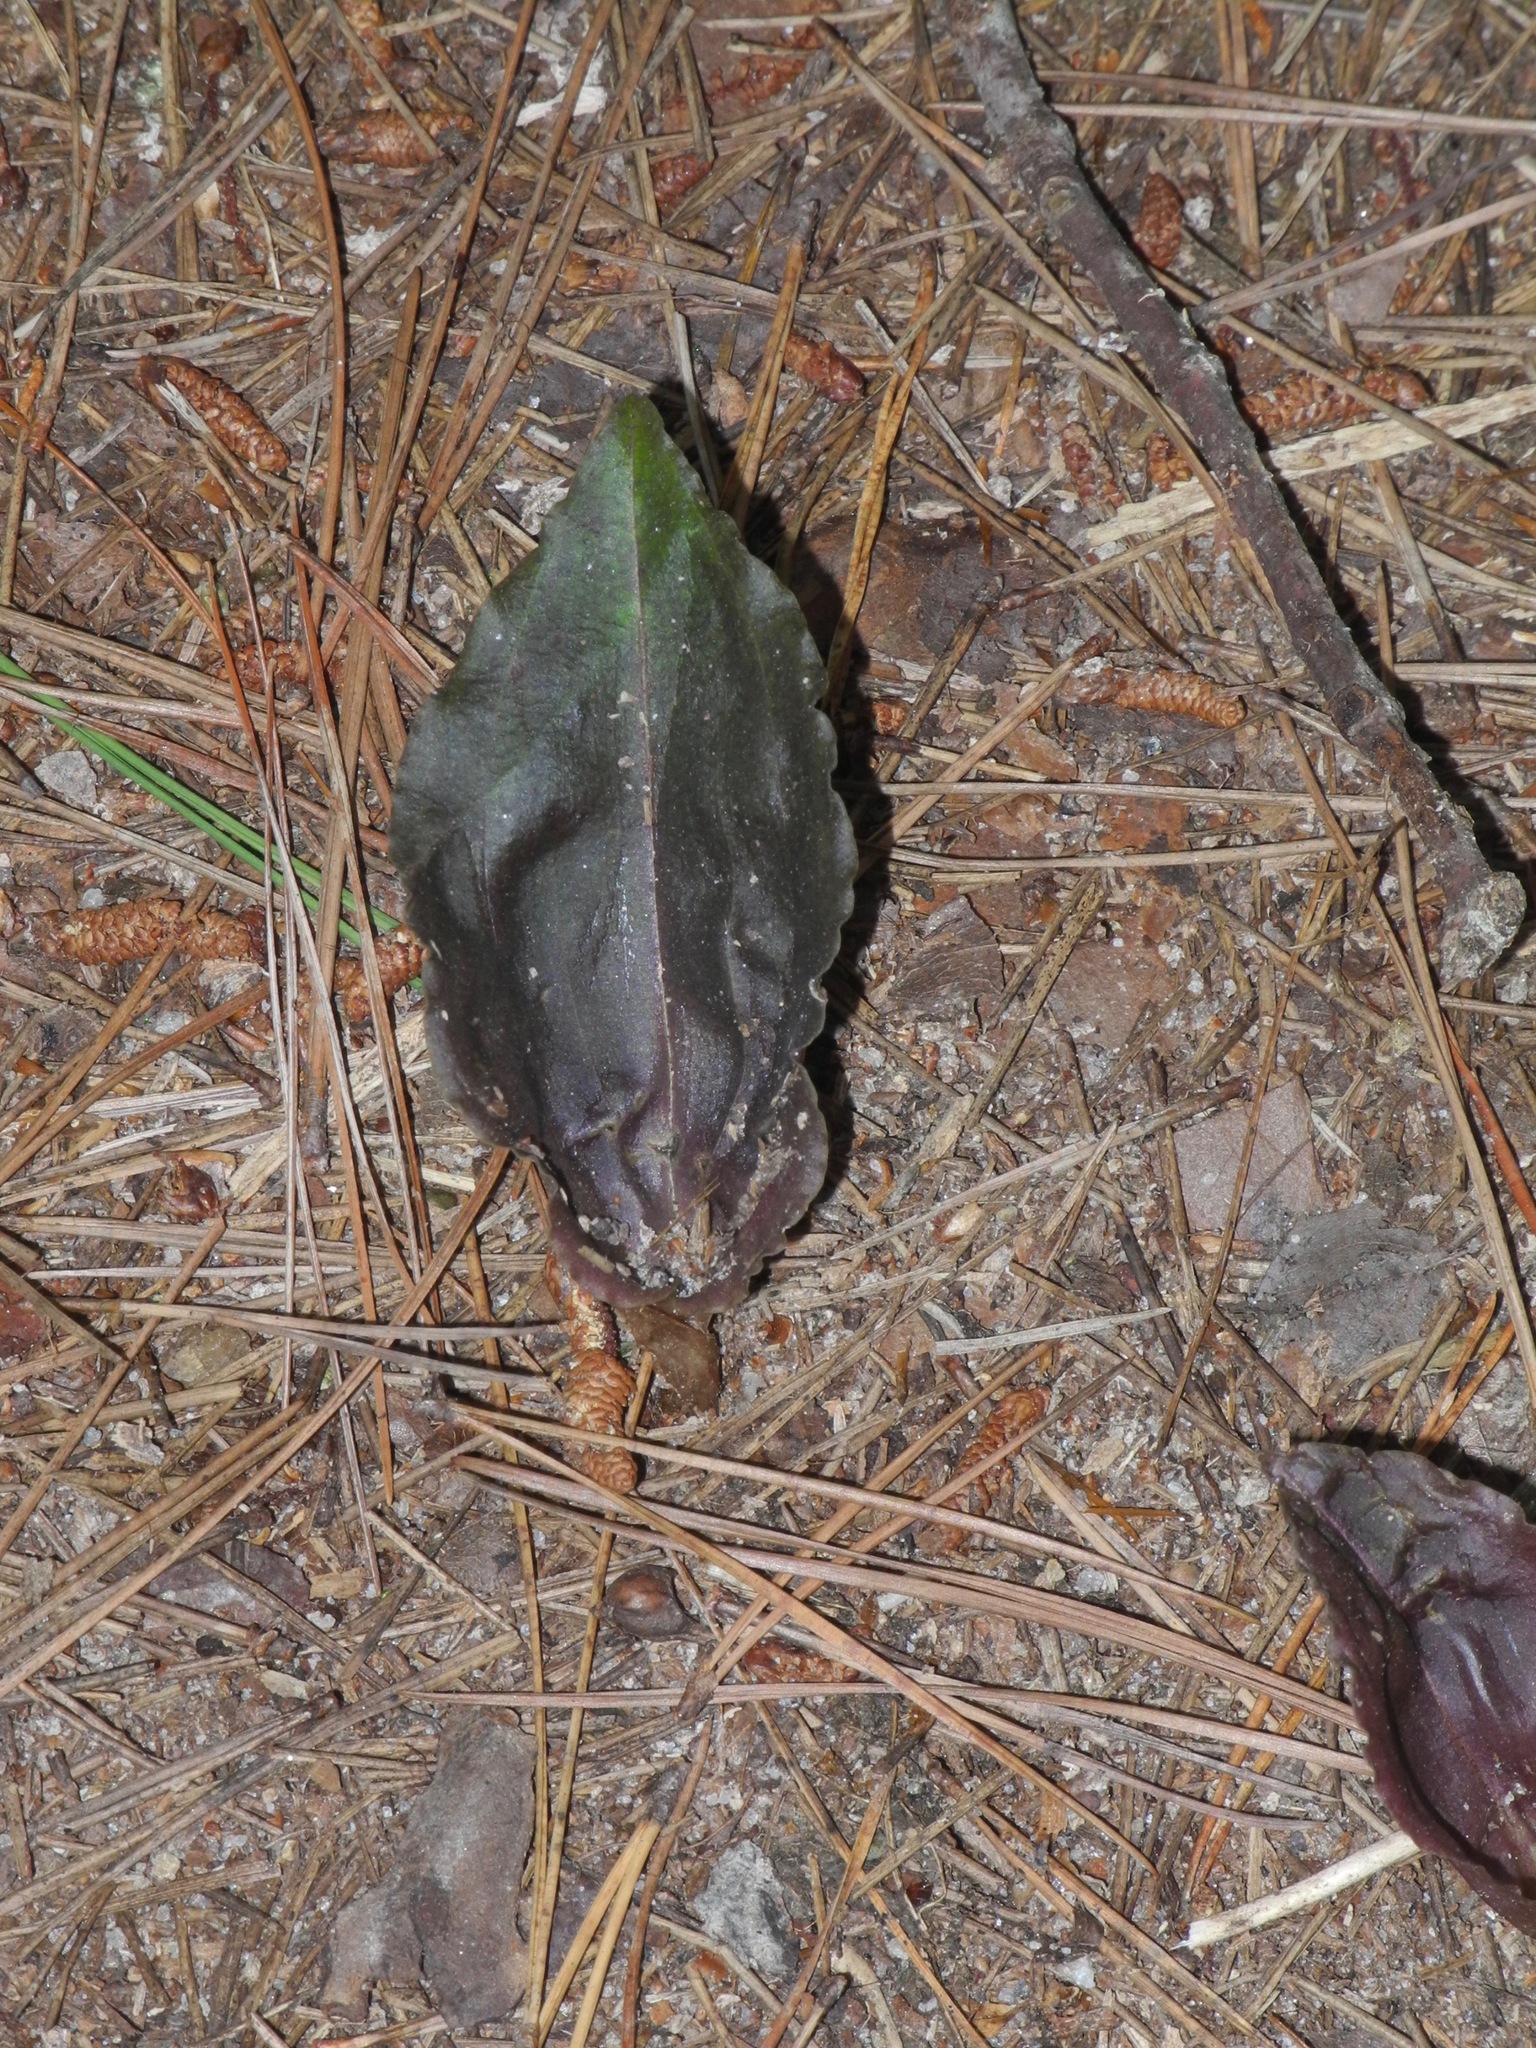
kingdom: Plantae
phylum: Tracheophyta
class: Liliopsida
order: Asparagales
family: Orchidaceae
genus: Tipularia
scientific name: Tipularia discolor
